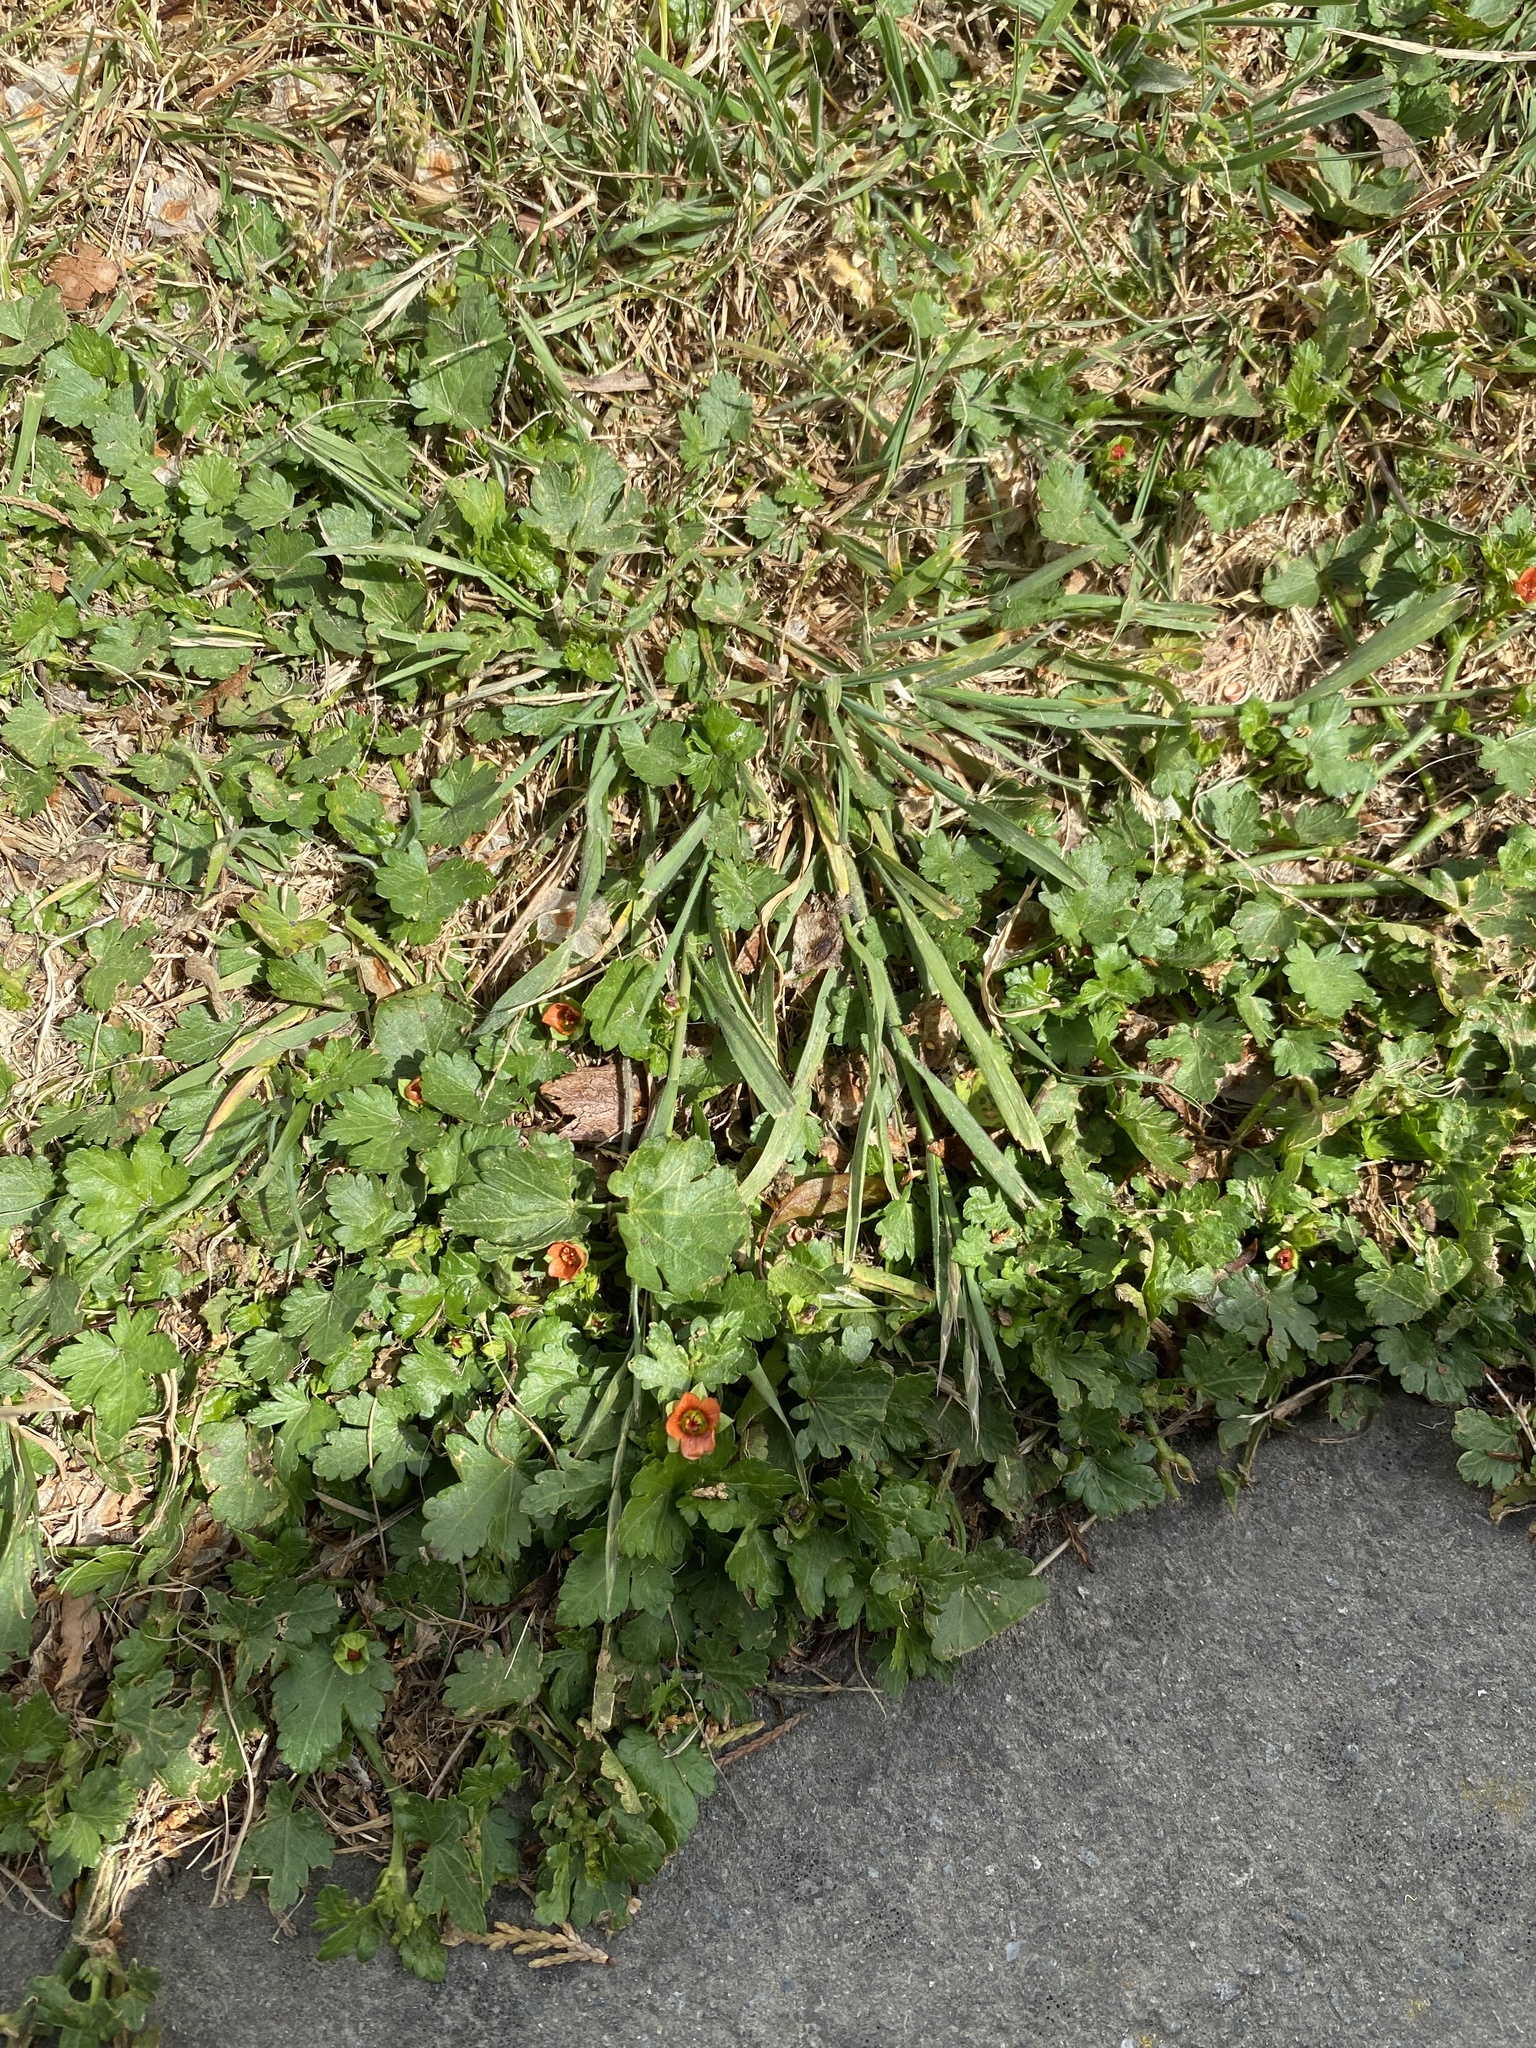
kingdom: Plantae
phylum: Tracheophyta
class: Magnoliopsida
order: Malvales
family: Malvaceae
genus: Modiola
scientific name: Modiola caroliniana
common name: Carolina bristlemallow
